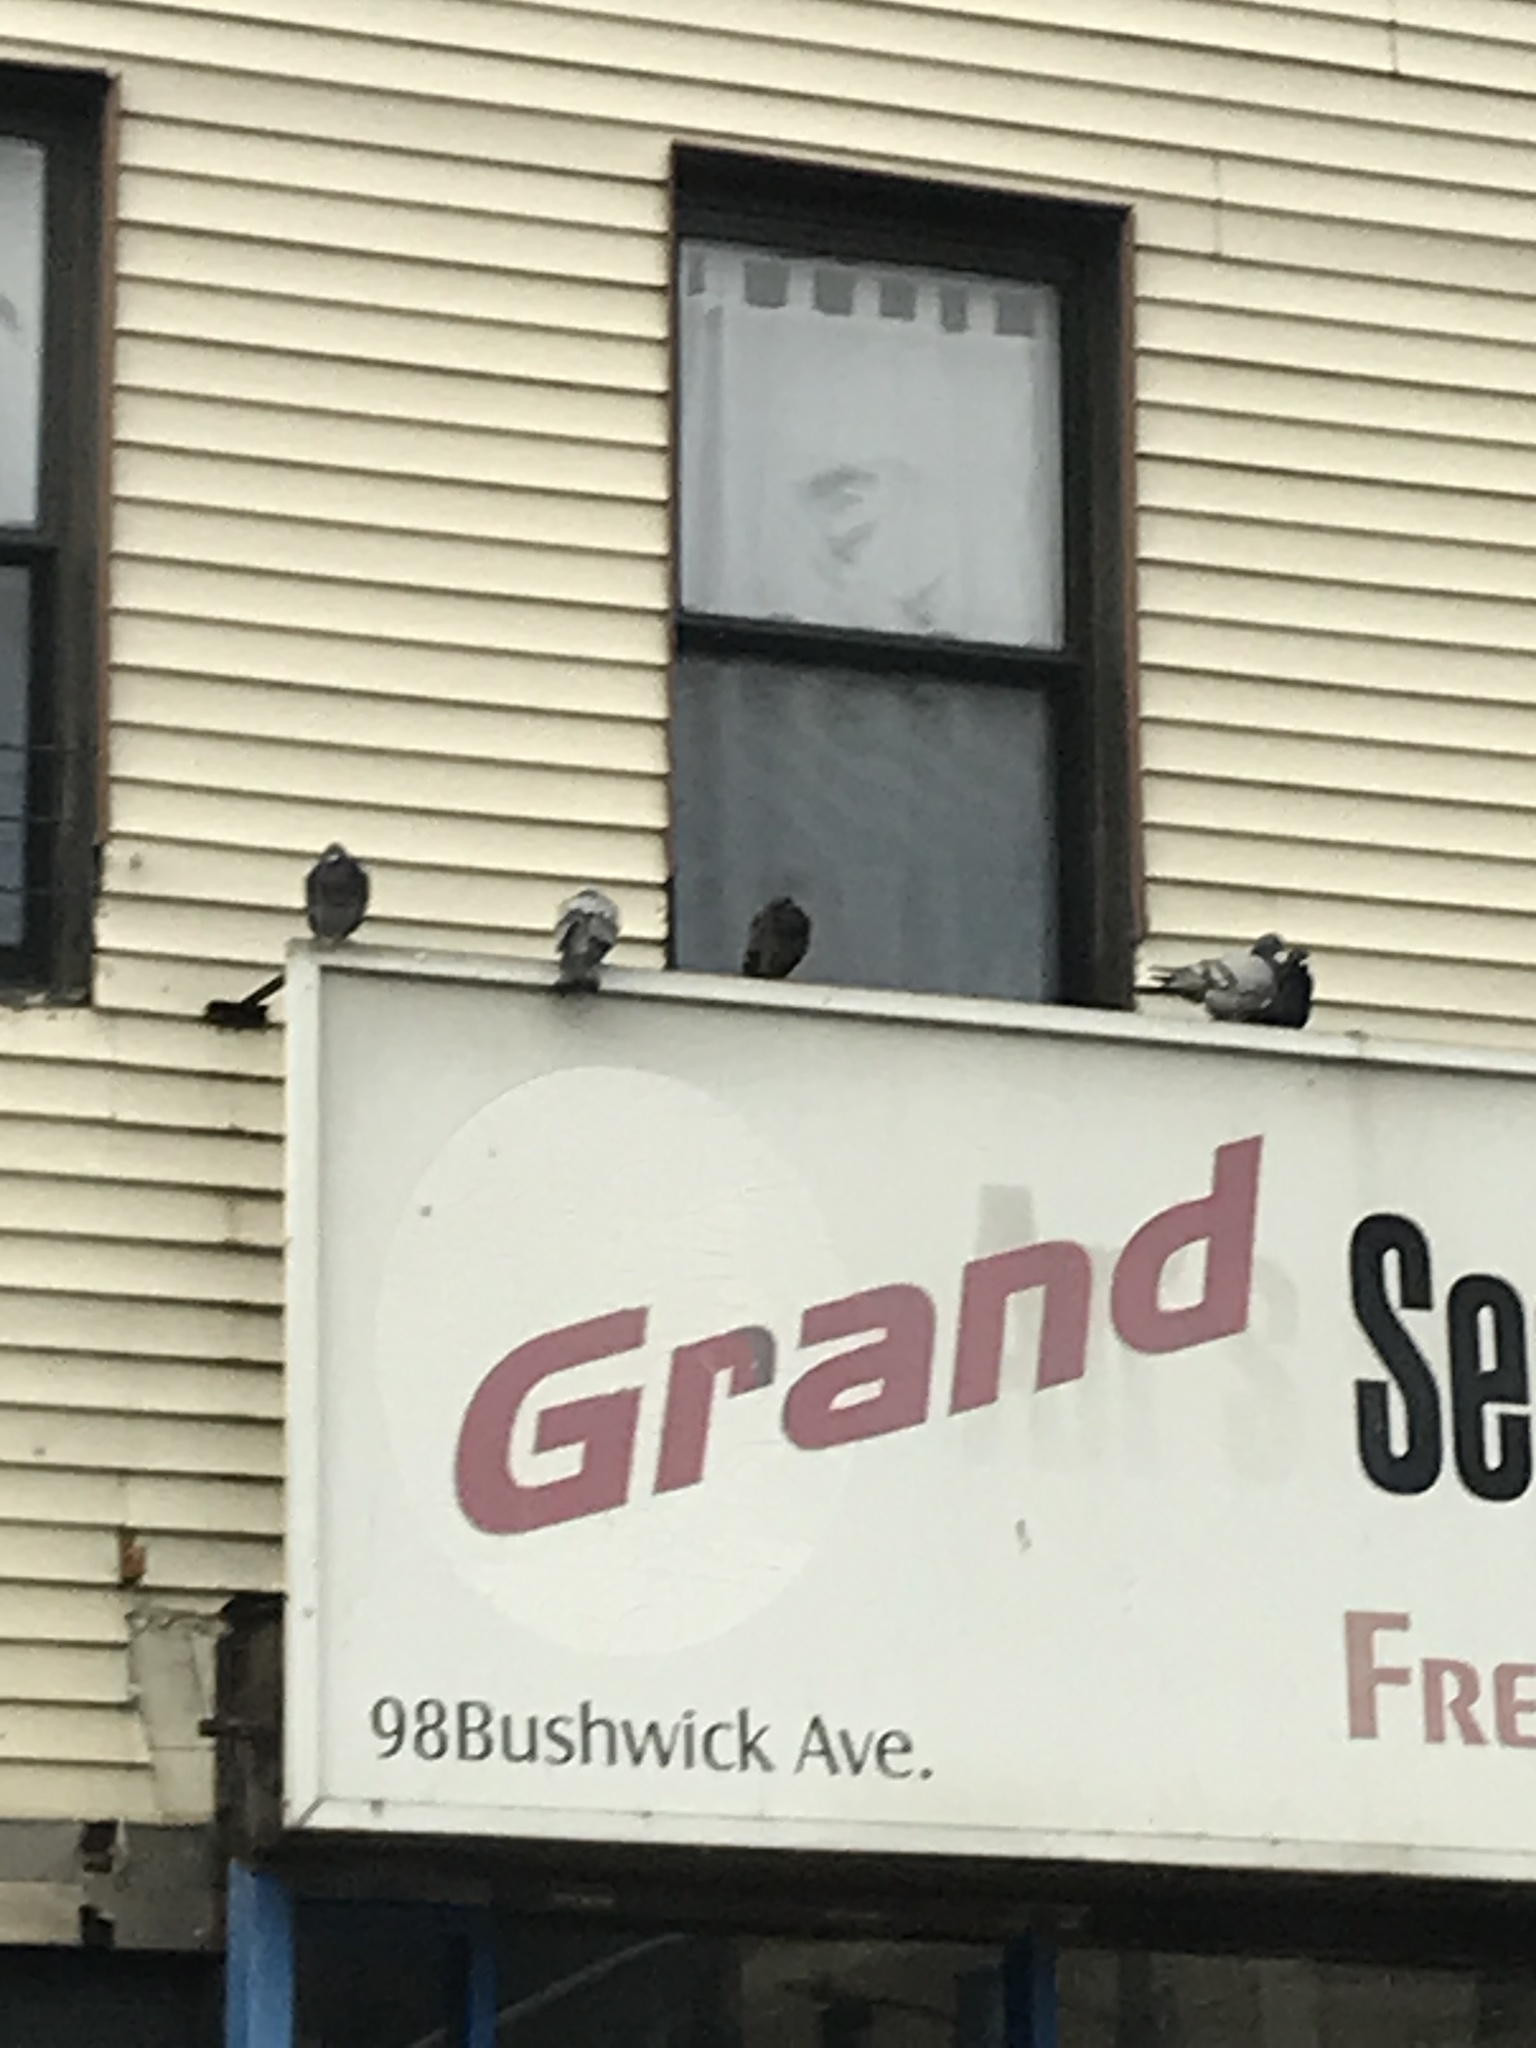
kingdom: Animalia
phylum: Chordata
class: Aves
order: Columbiformes
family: Columbidae
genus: Columba
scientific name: Columba livia
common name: Rock pigeon
